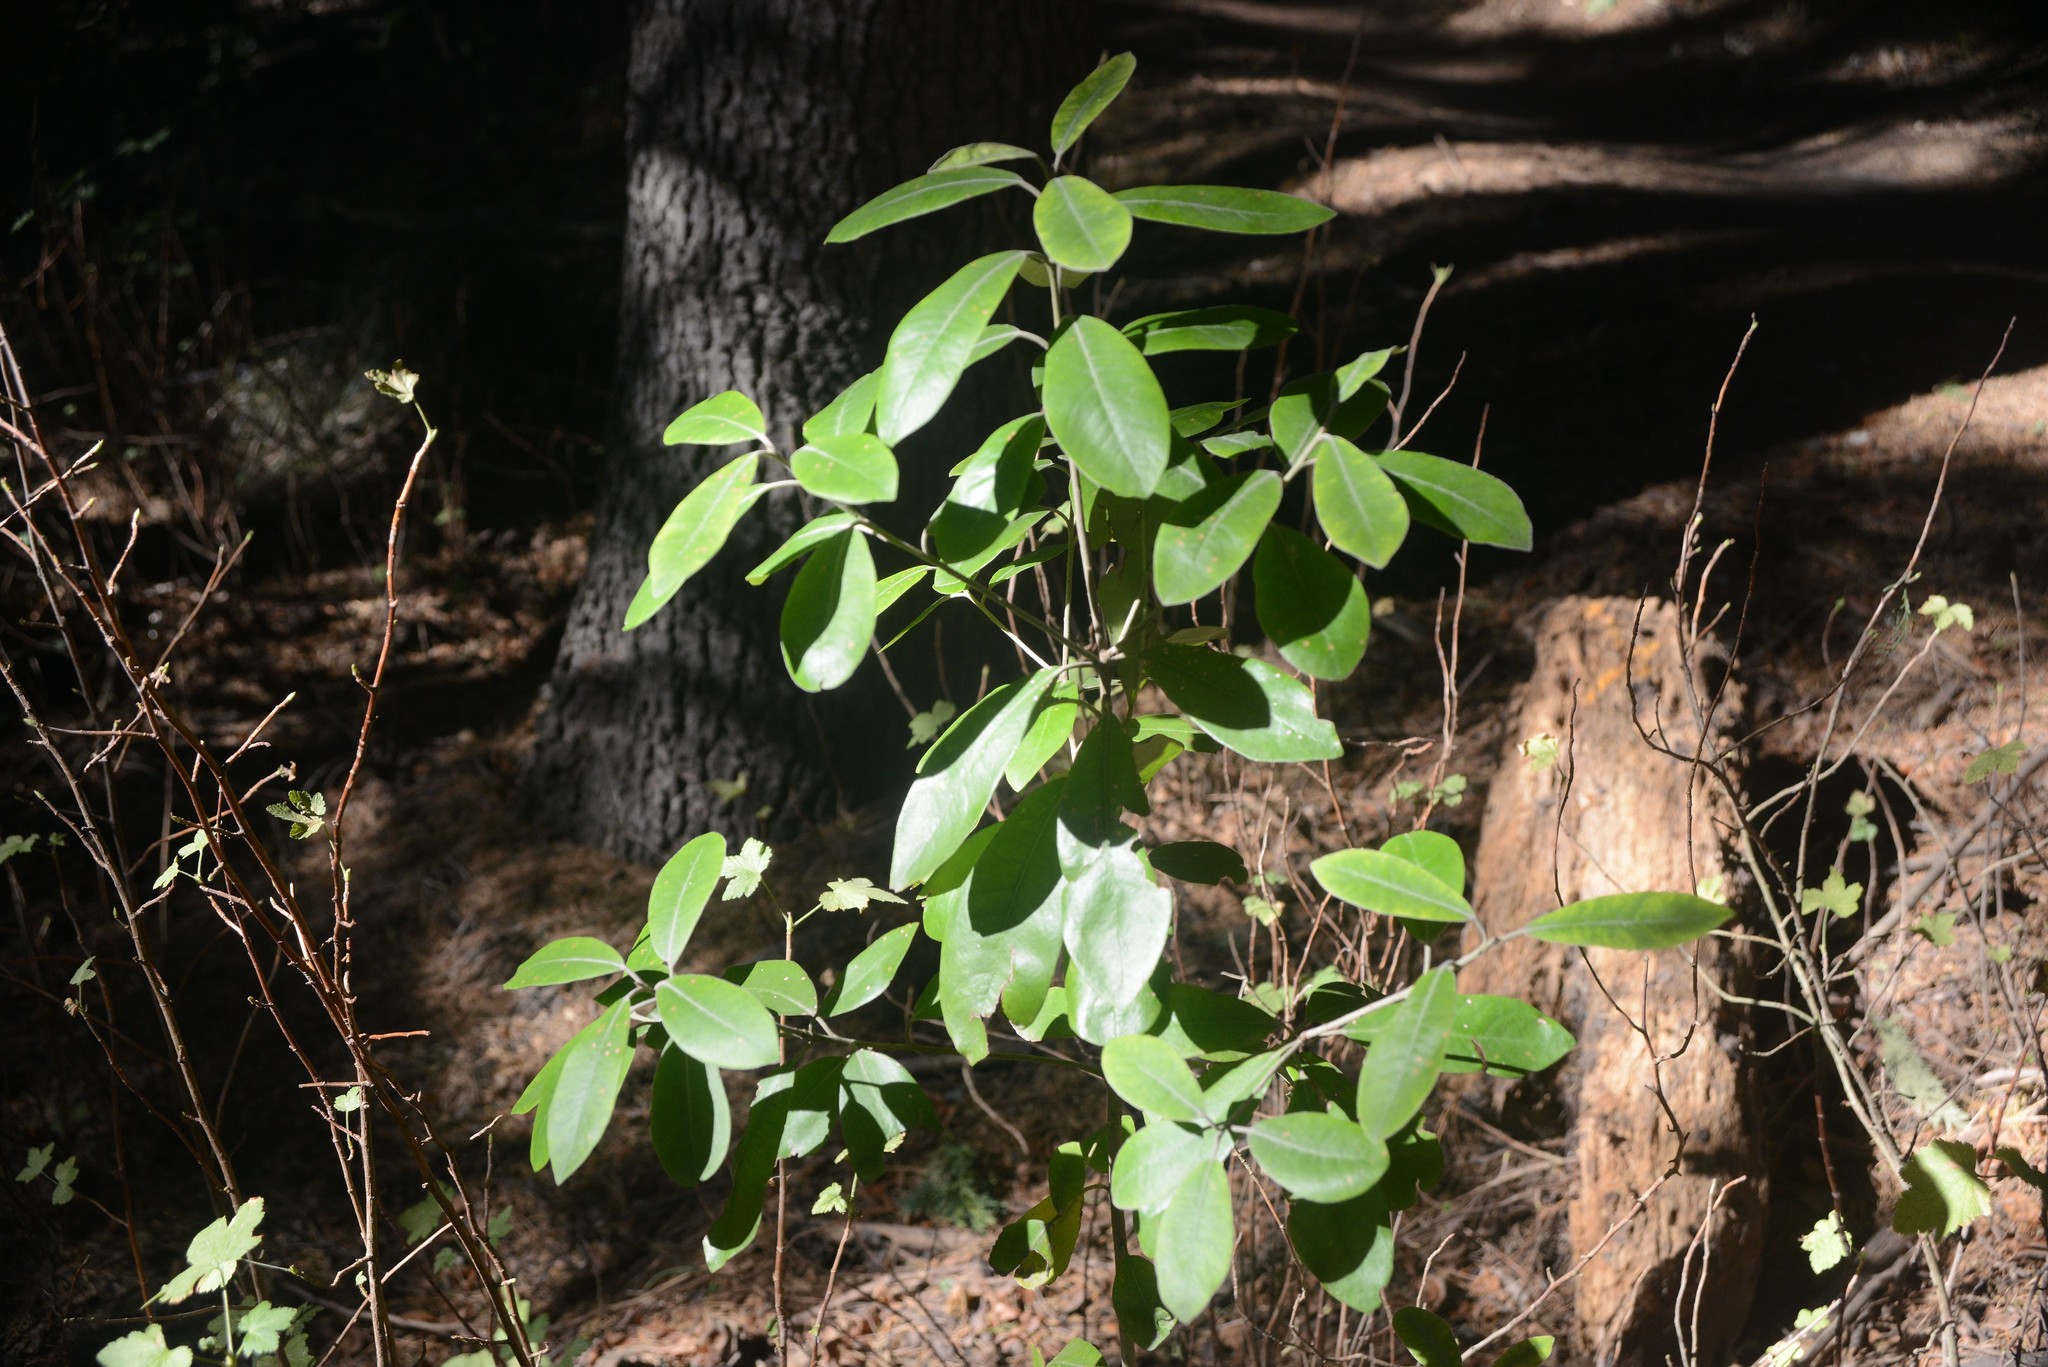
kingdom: Plantae
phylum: Tracheophyta
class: Magnoliopsida
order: Apiales
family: Pittosporaceae
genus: Pittosporum
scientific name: Pittosporum ralphii
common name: Ralph's desertwillow
